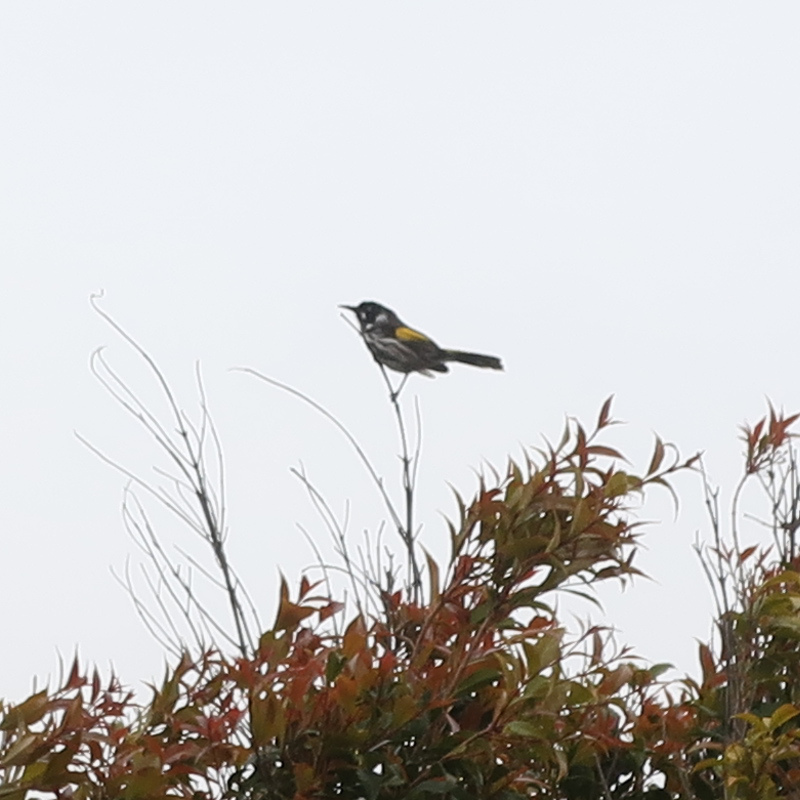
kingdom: Animalia
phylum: Chordata
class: Aves
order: Passeriformes
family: Meliphagidae
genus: Phylidonyris
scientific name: Phylidonyris novaehollandiae
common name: New holland honeyeater
